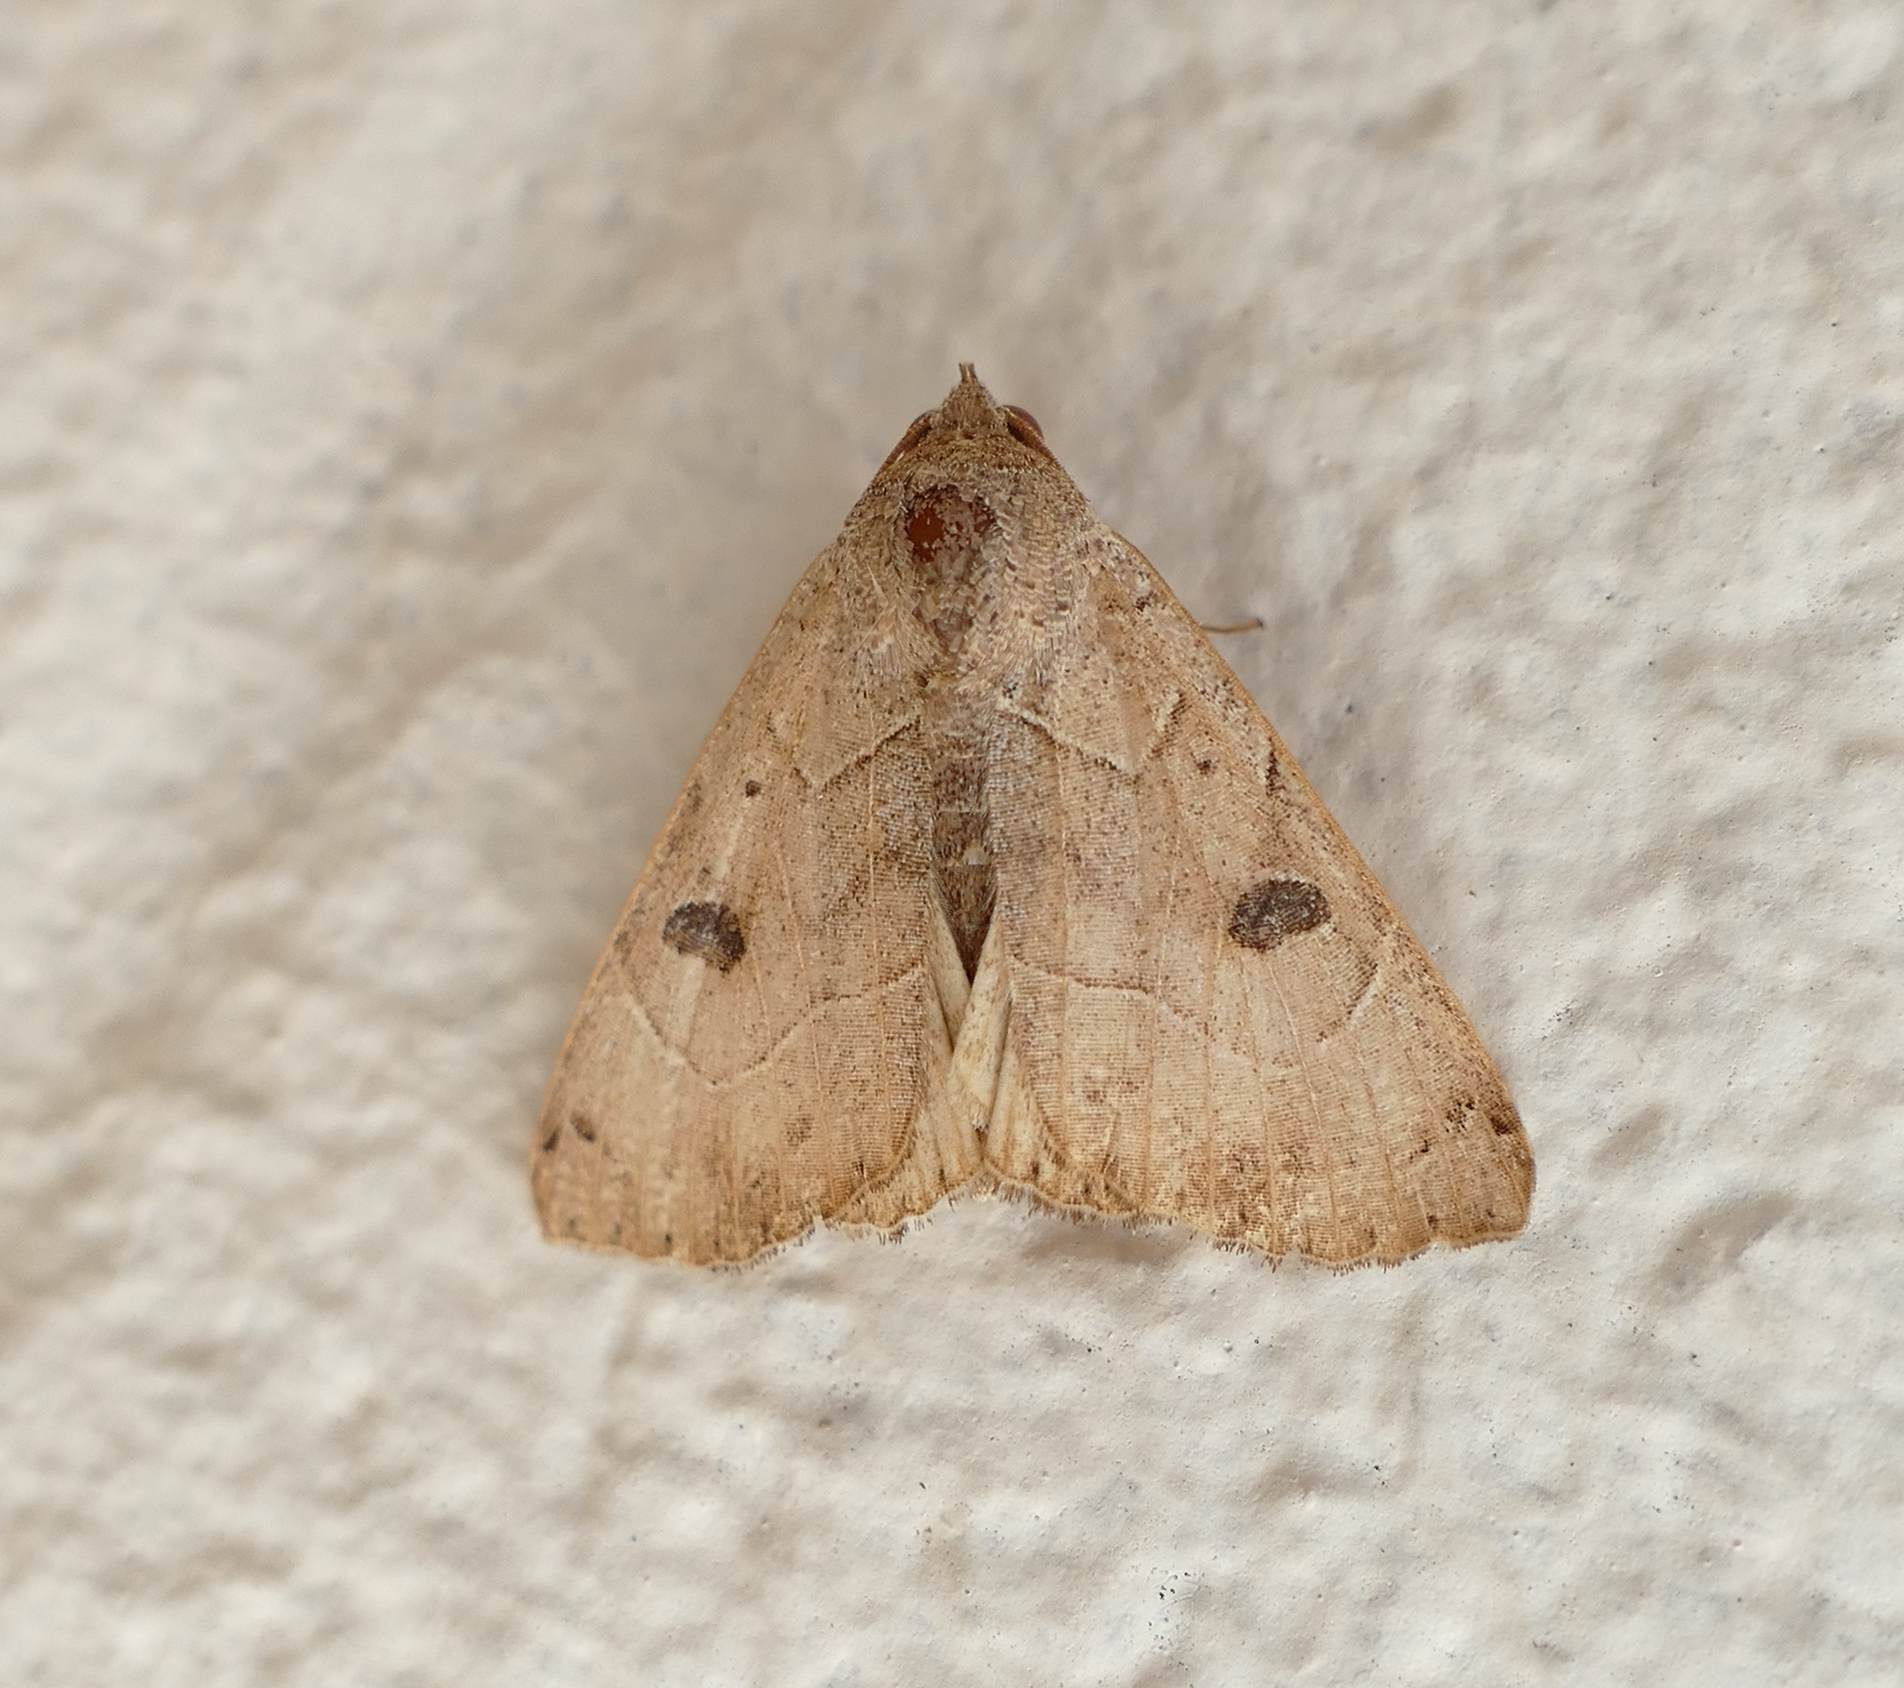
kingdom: Animalia
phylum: Arthropoda
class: Insecta
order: Lepidoptera
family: Erebidae
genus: Isogona
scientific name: Isogona scindens
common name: Owlet moth
